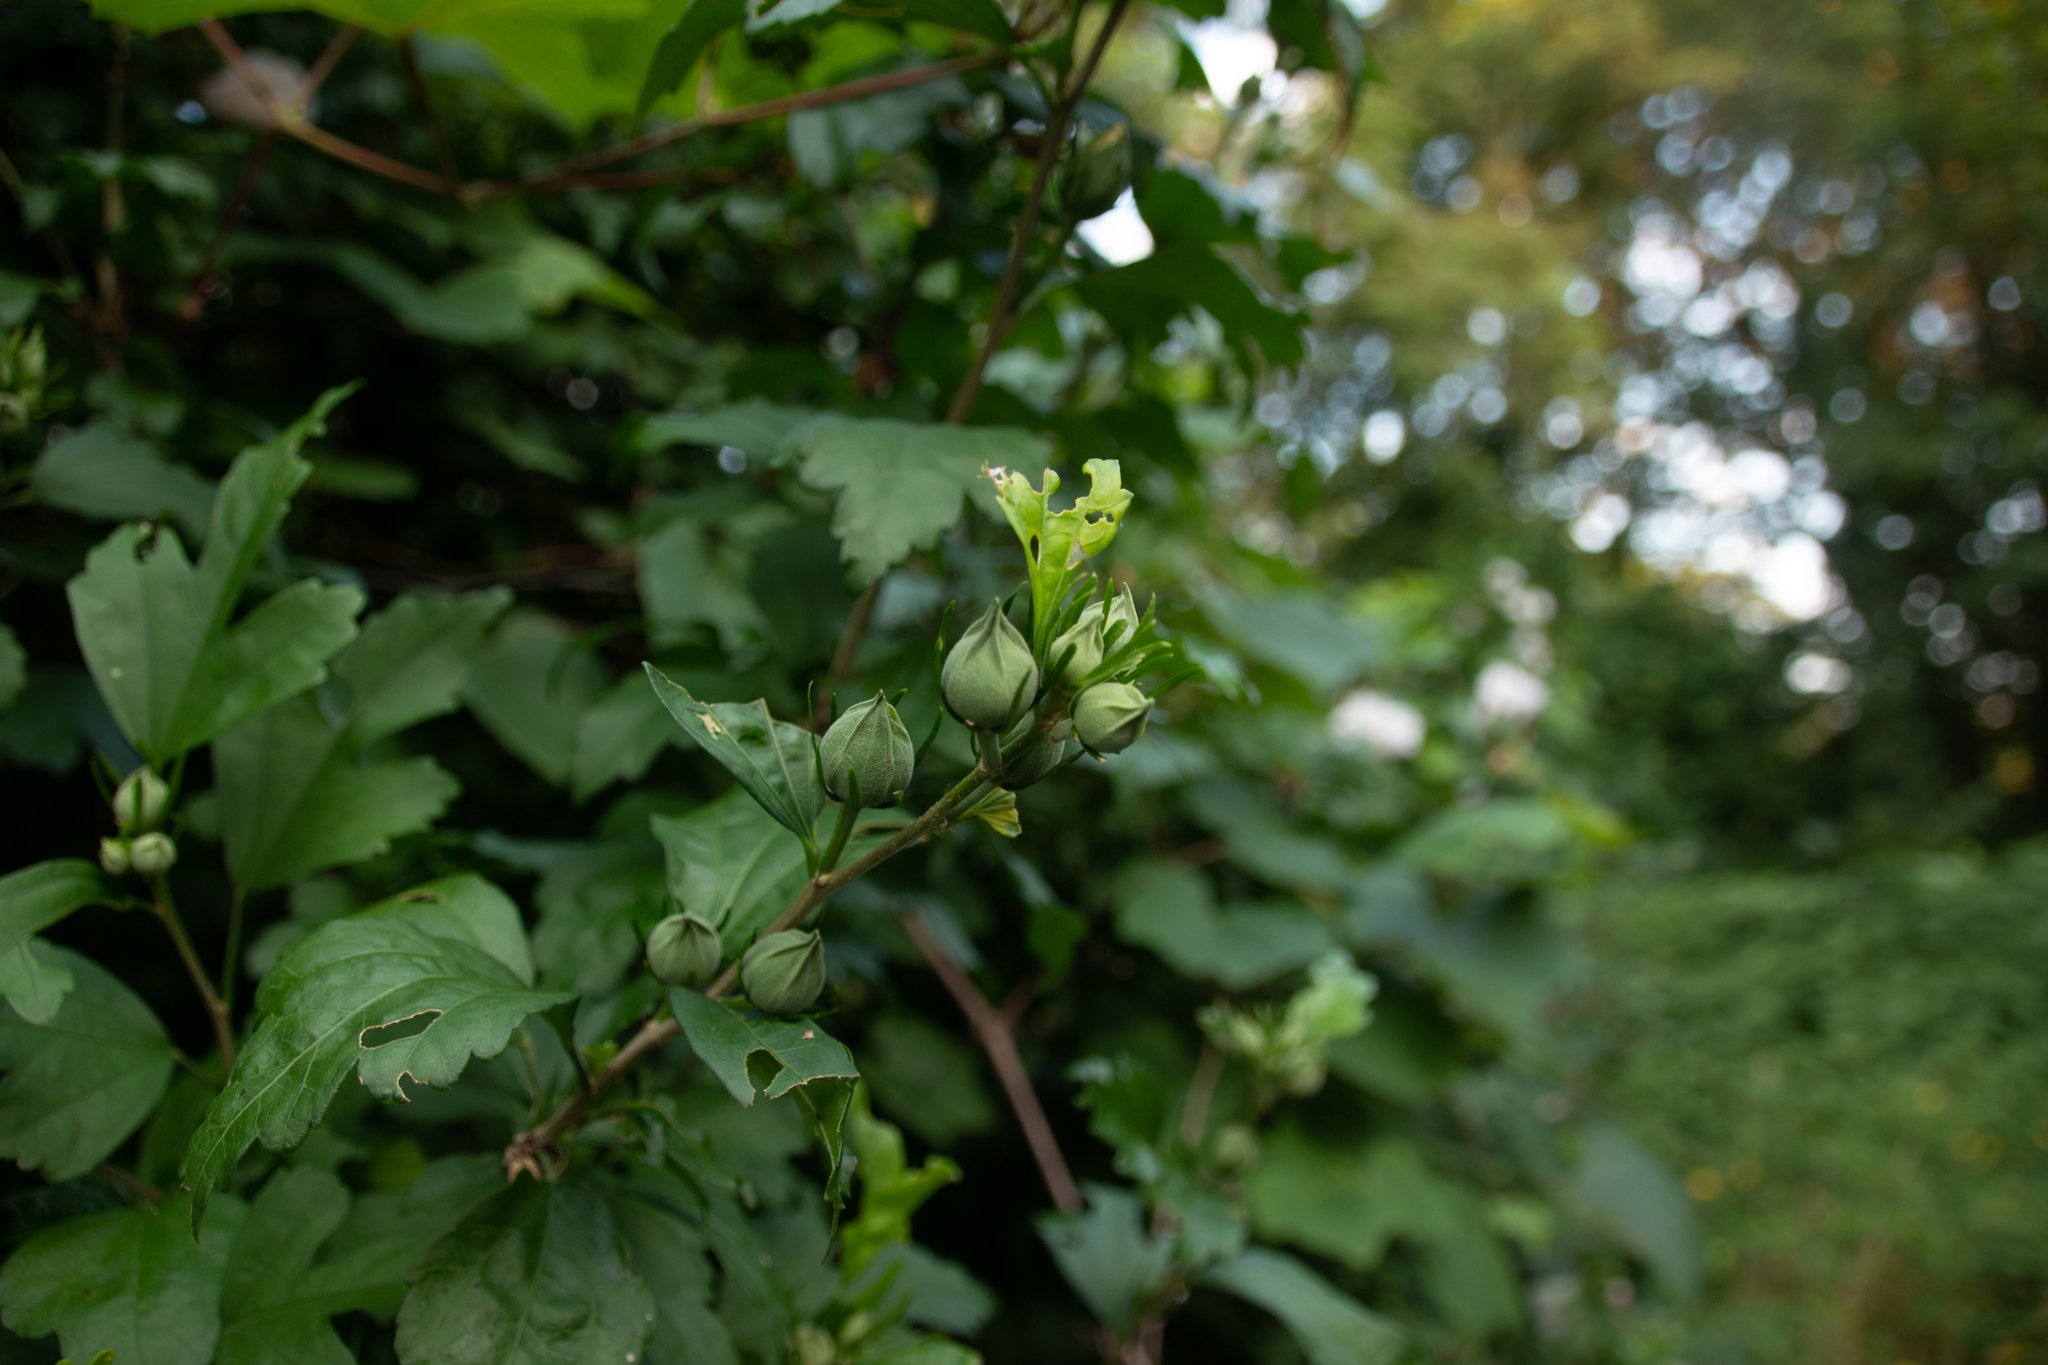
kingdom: Plantae
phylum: Tracheophyta
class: Magnoliopsida
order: Malvales
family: Malvaceae
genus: Hibiscus
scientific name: Hibiscus syriacus
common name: Syrian ketmia
